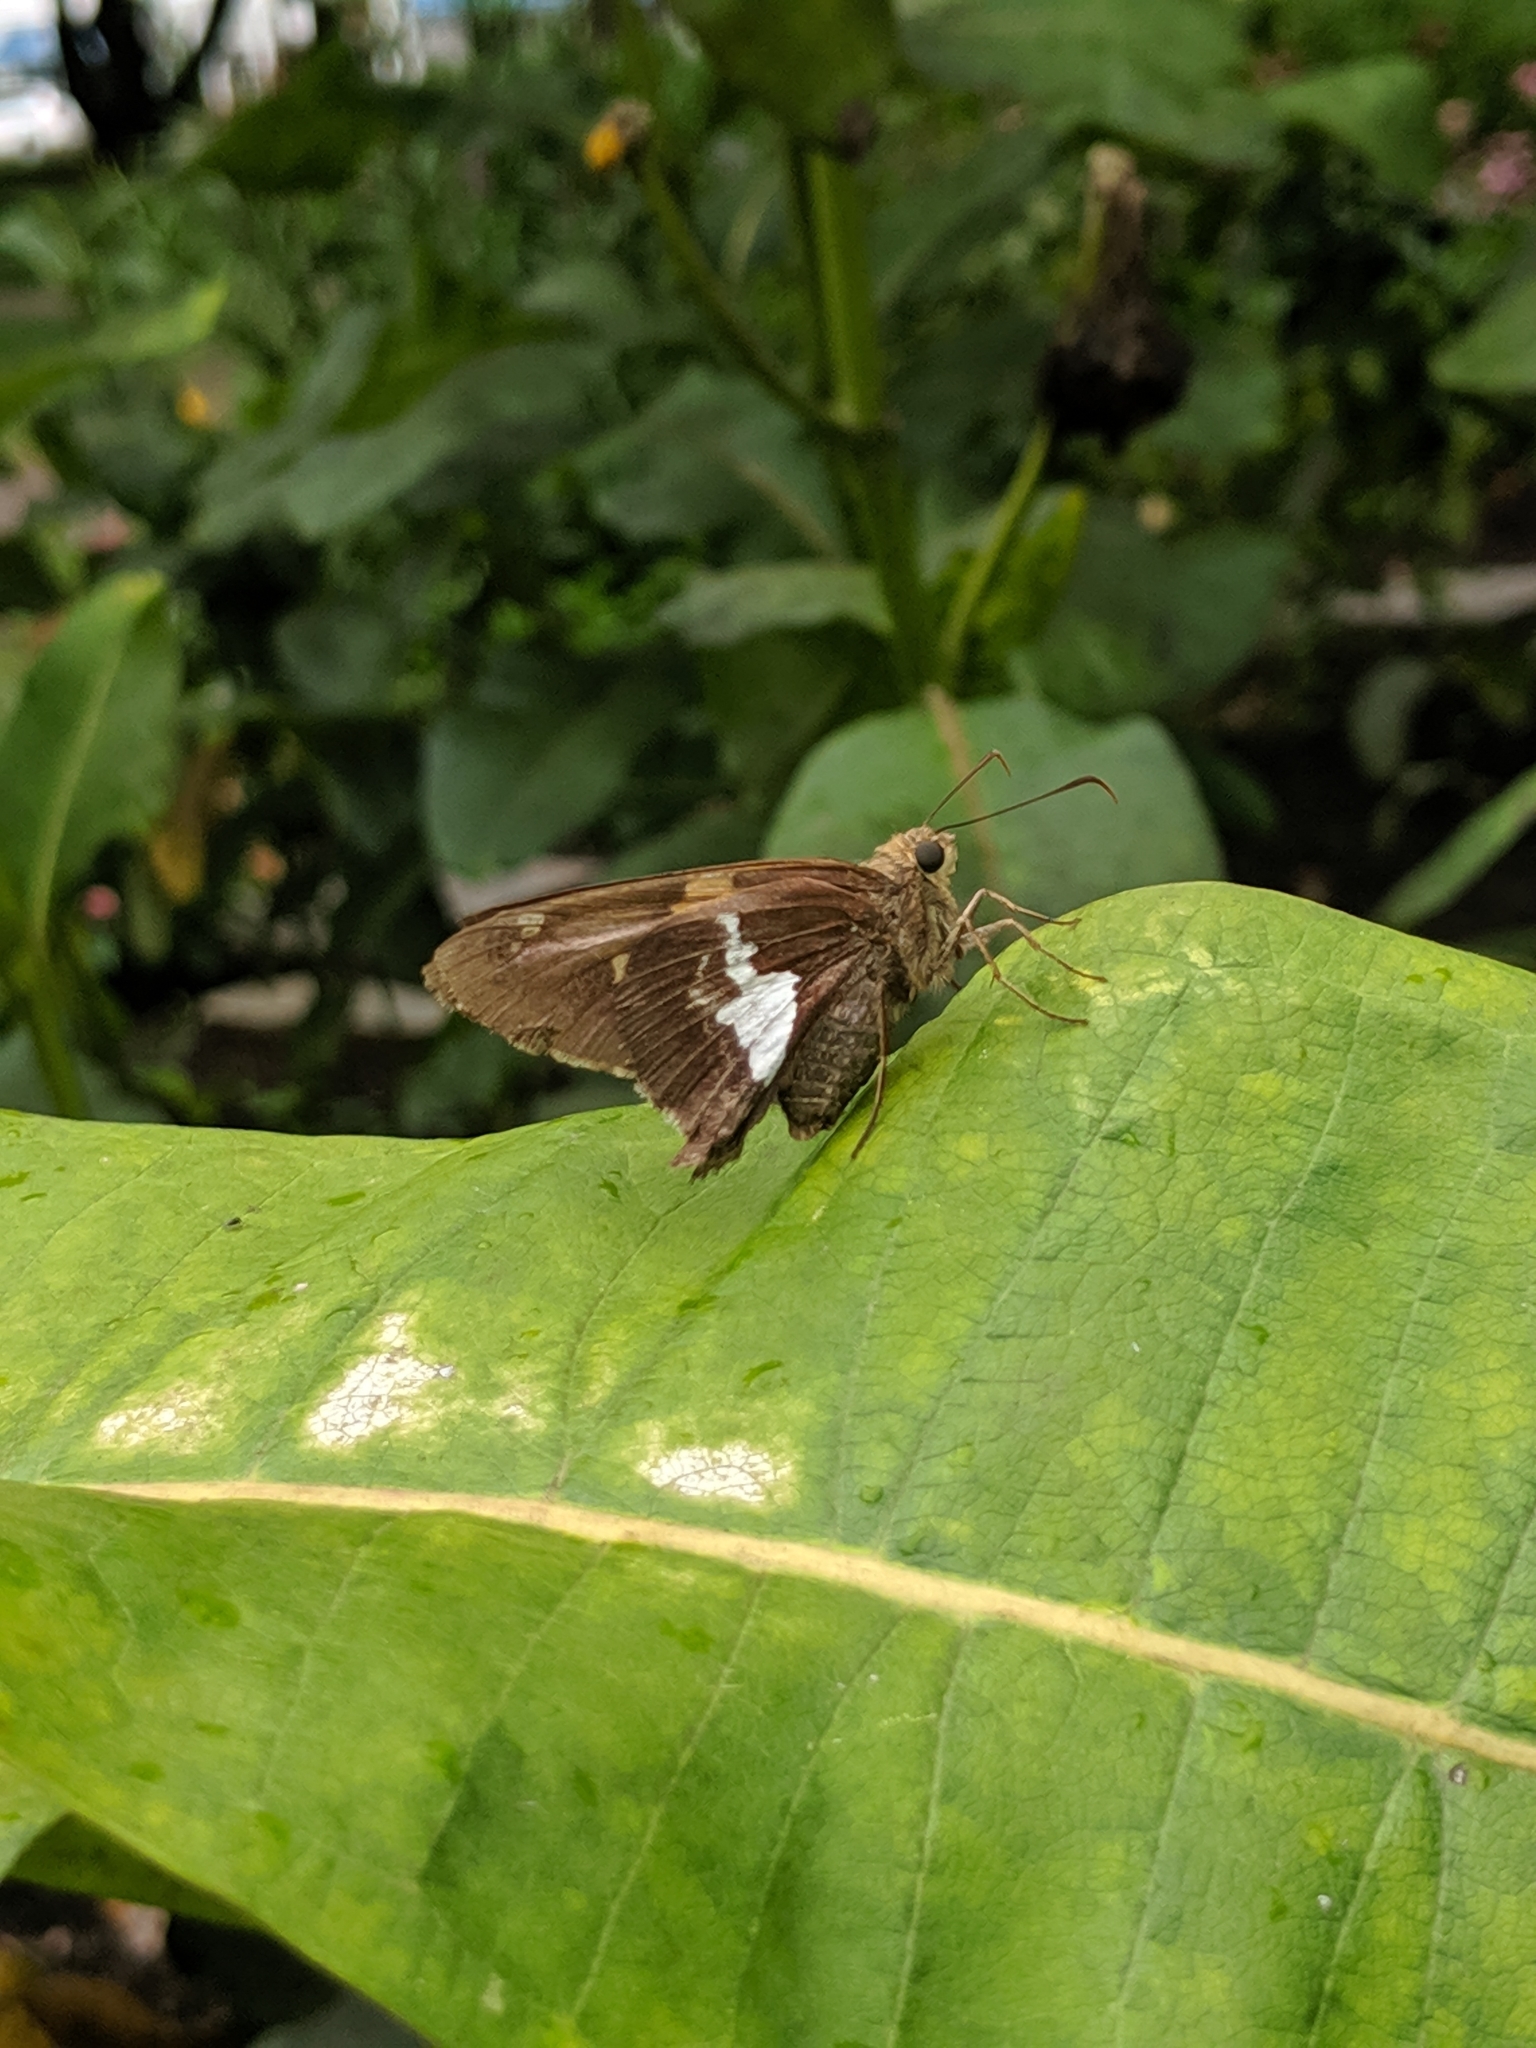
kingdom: Animalia
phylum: Arthropoda
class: Insecta
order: Lepidoptera
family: Hesperiidae
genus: Epargyreus
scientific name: Epargyreus clarus
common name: Silver-spotted skipper
